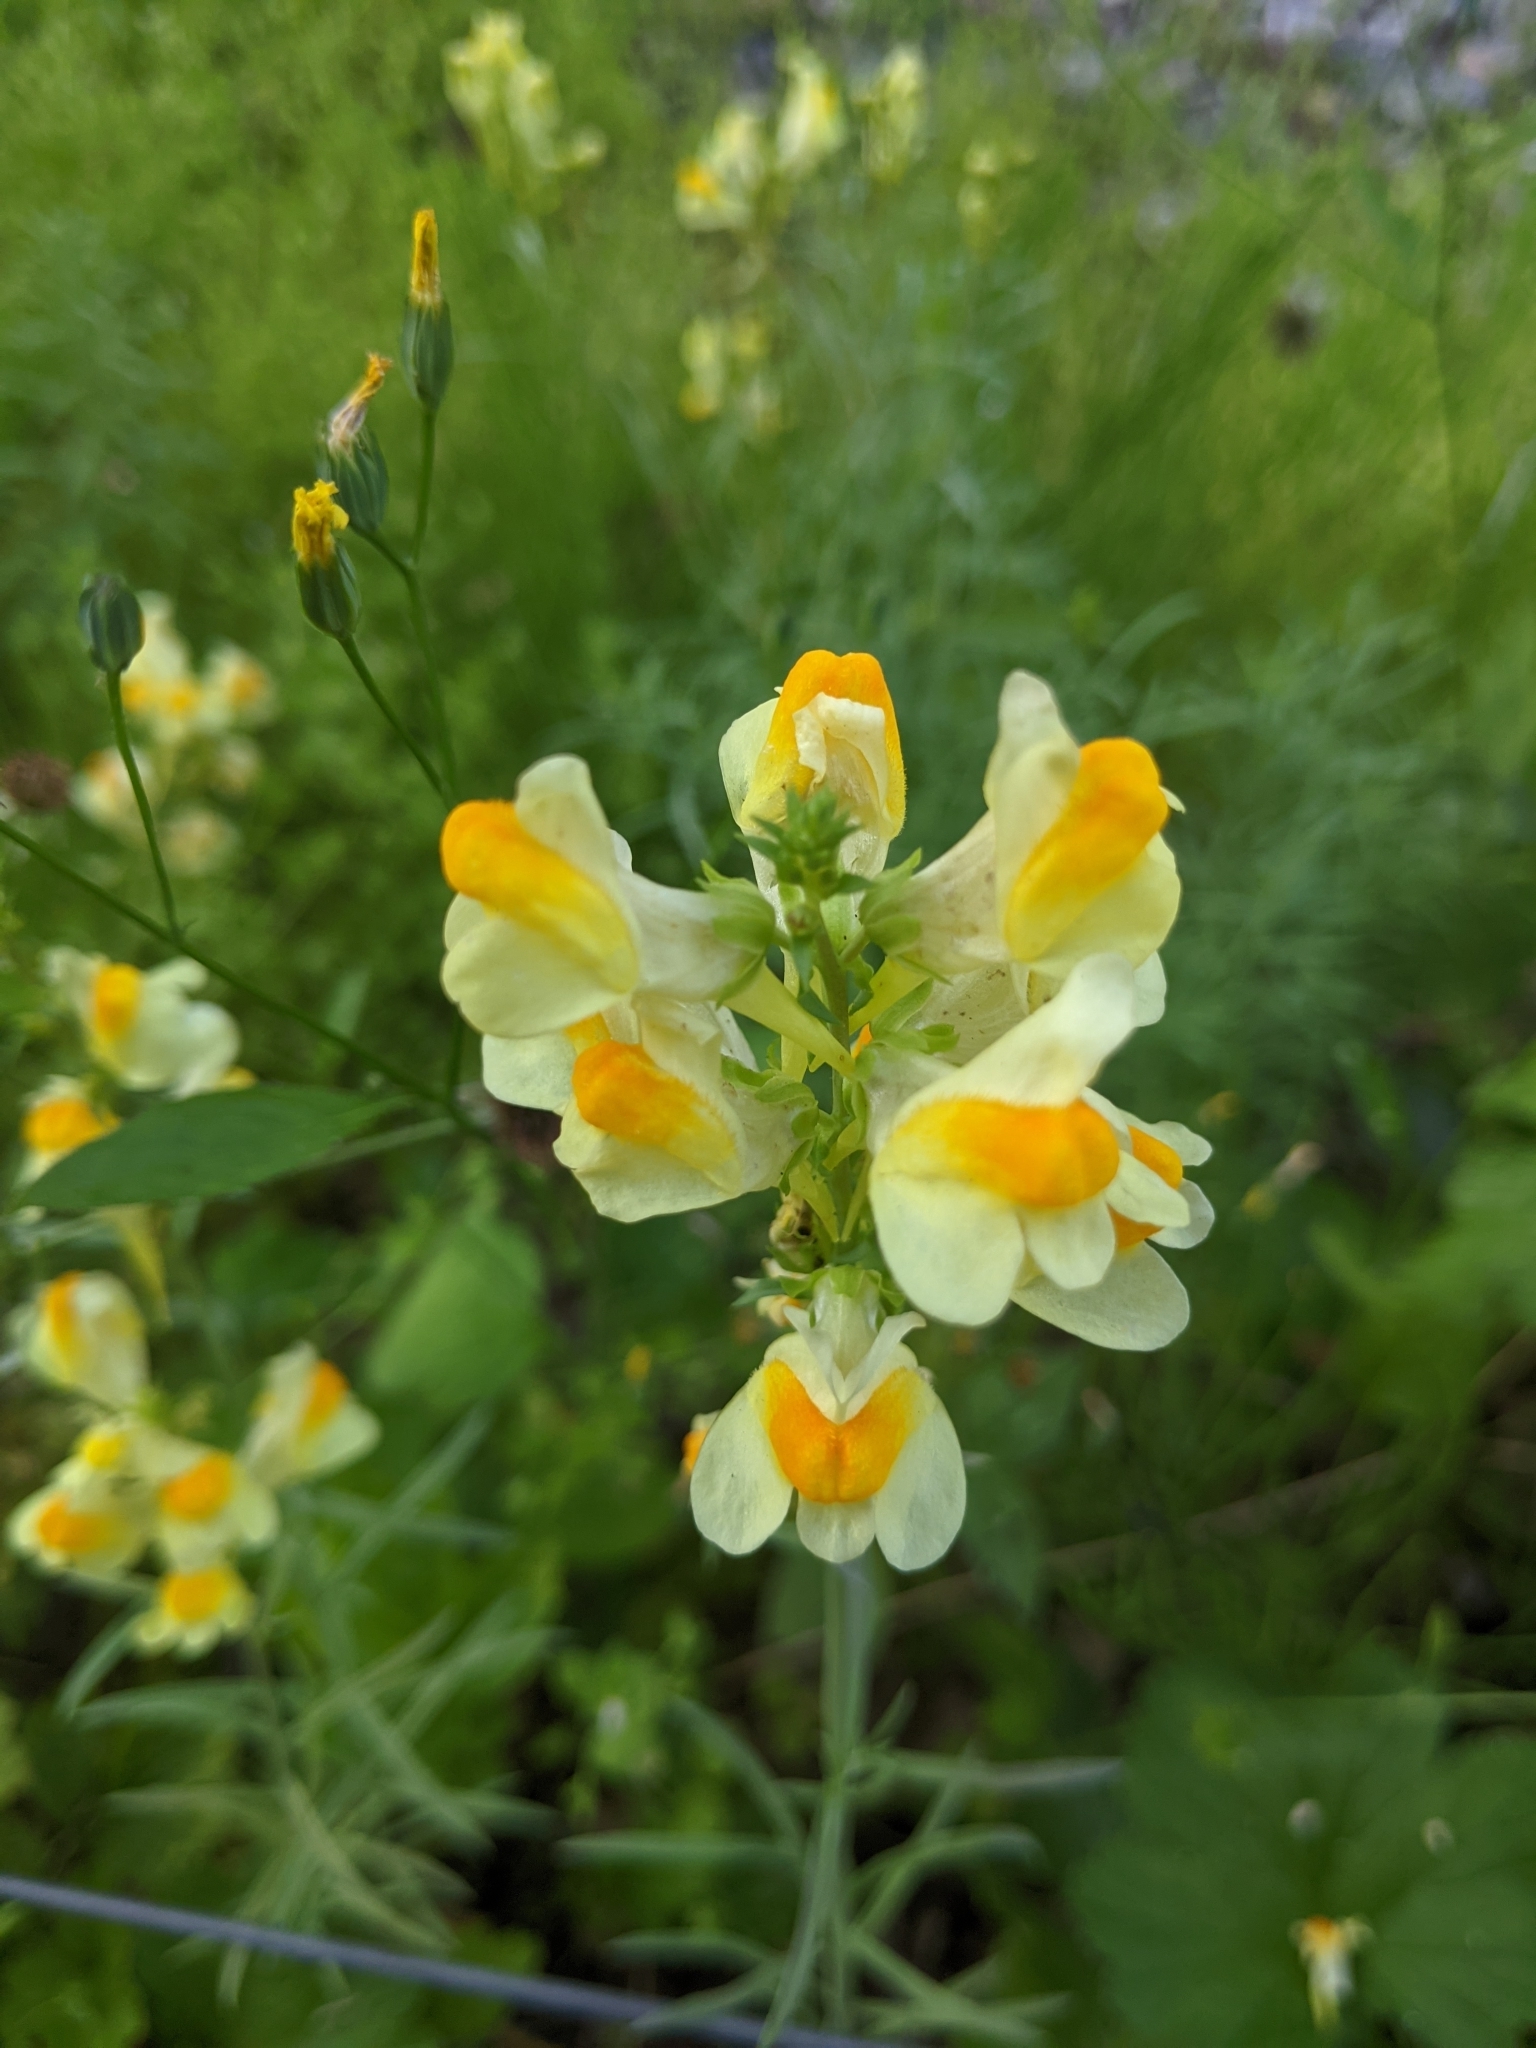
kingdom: Plantae
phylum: Tracheophyta
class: Magnoliopsida
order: Lamiales
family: Plantaginaceae
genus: Linaria
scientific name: Linaria vulgaris
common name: Butter and eggs
